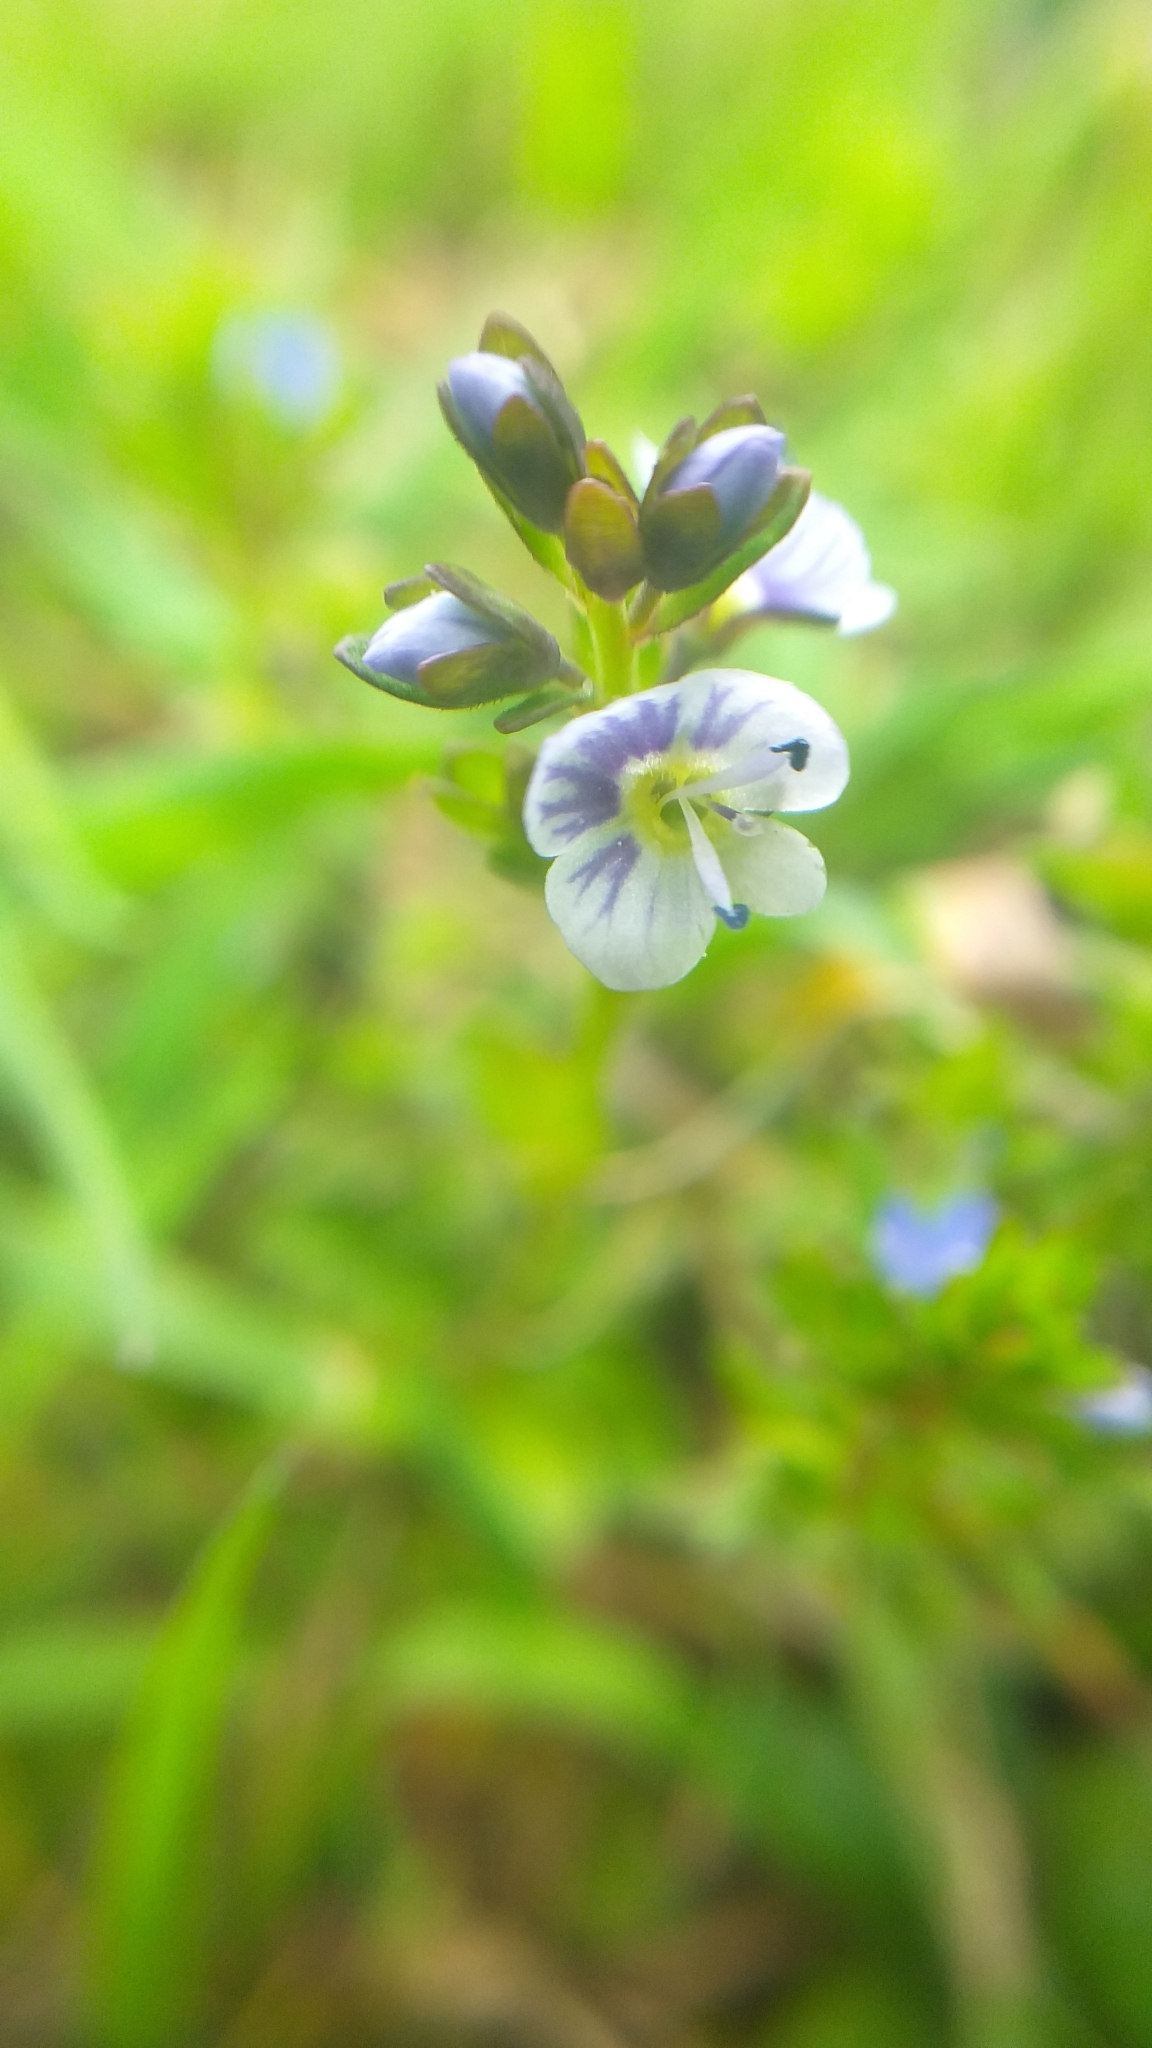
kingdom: Plantae
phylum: Tracheophyta
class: Magnoliopsida
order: Lamiales
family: Plantaginaceae
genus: Veronica
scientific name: Veronica serpyllifolia
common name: Thyme-leaved speedwell
